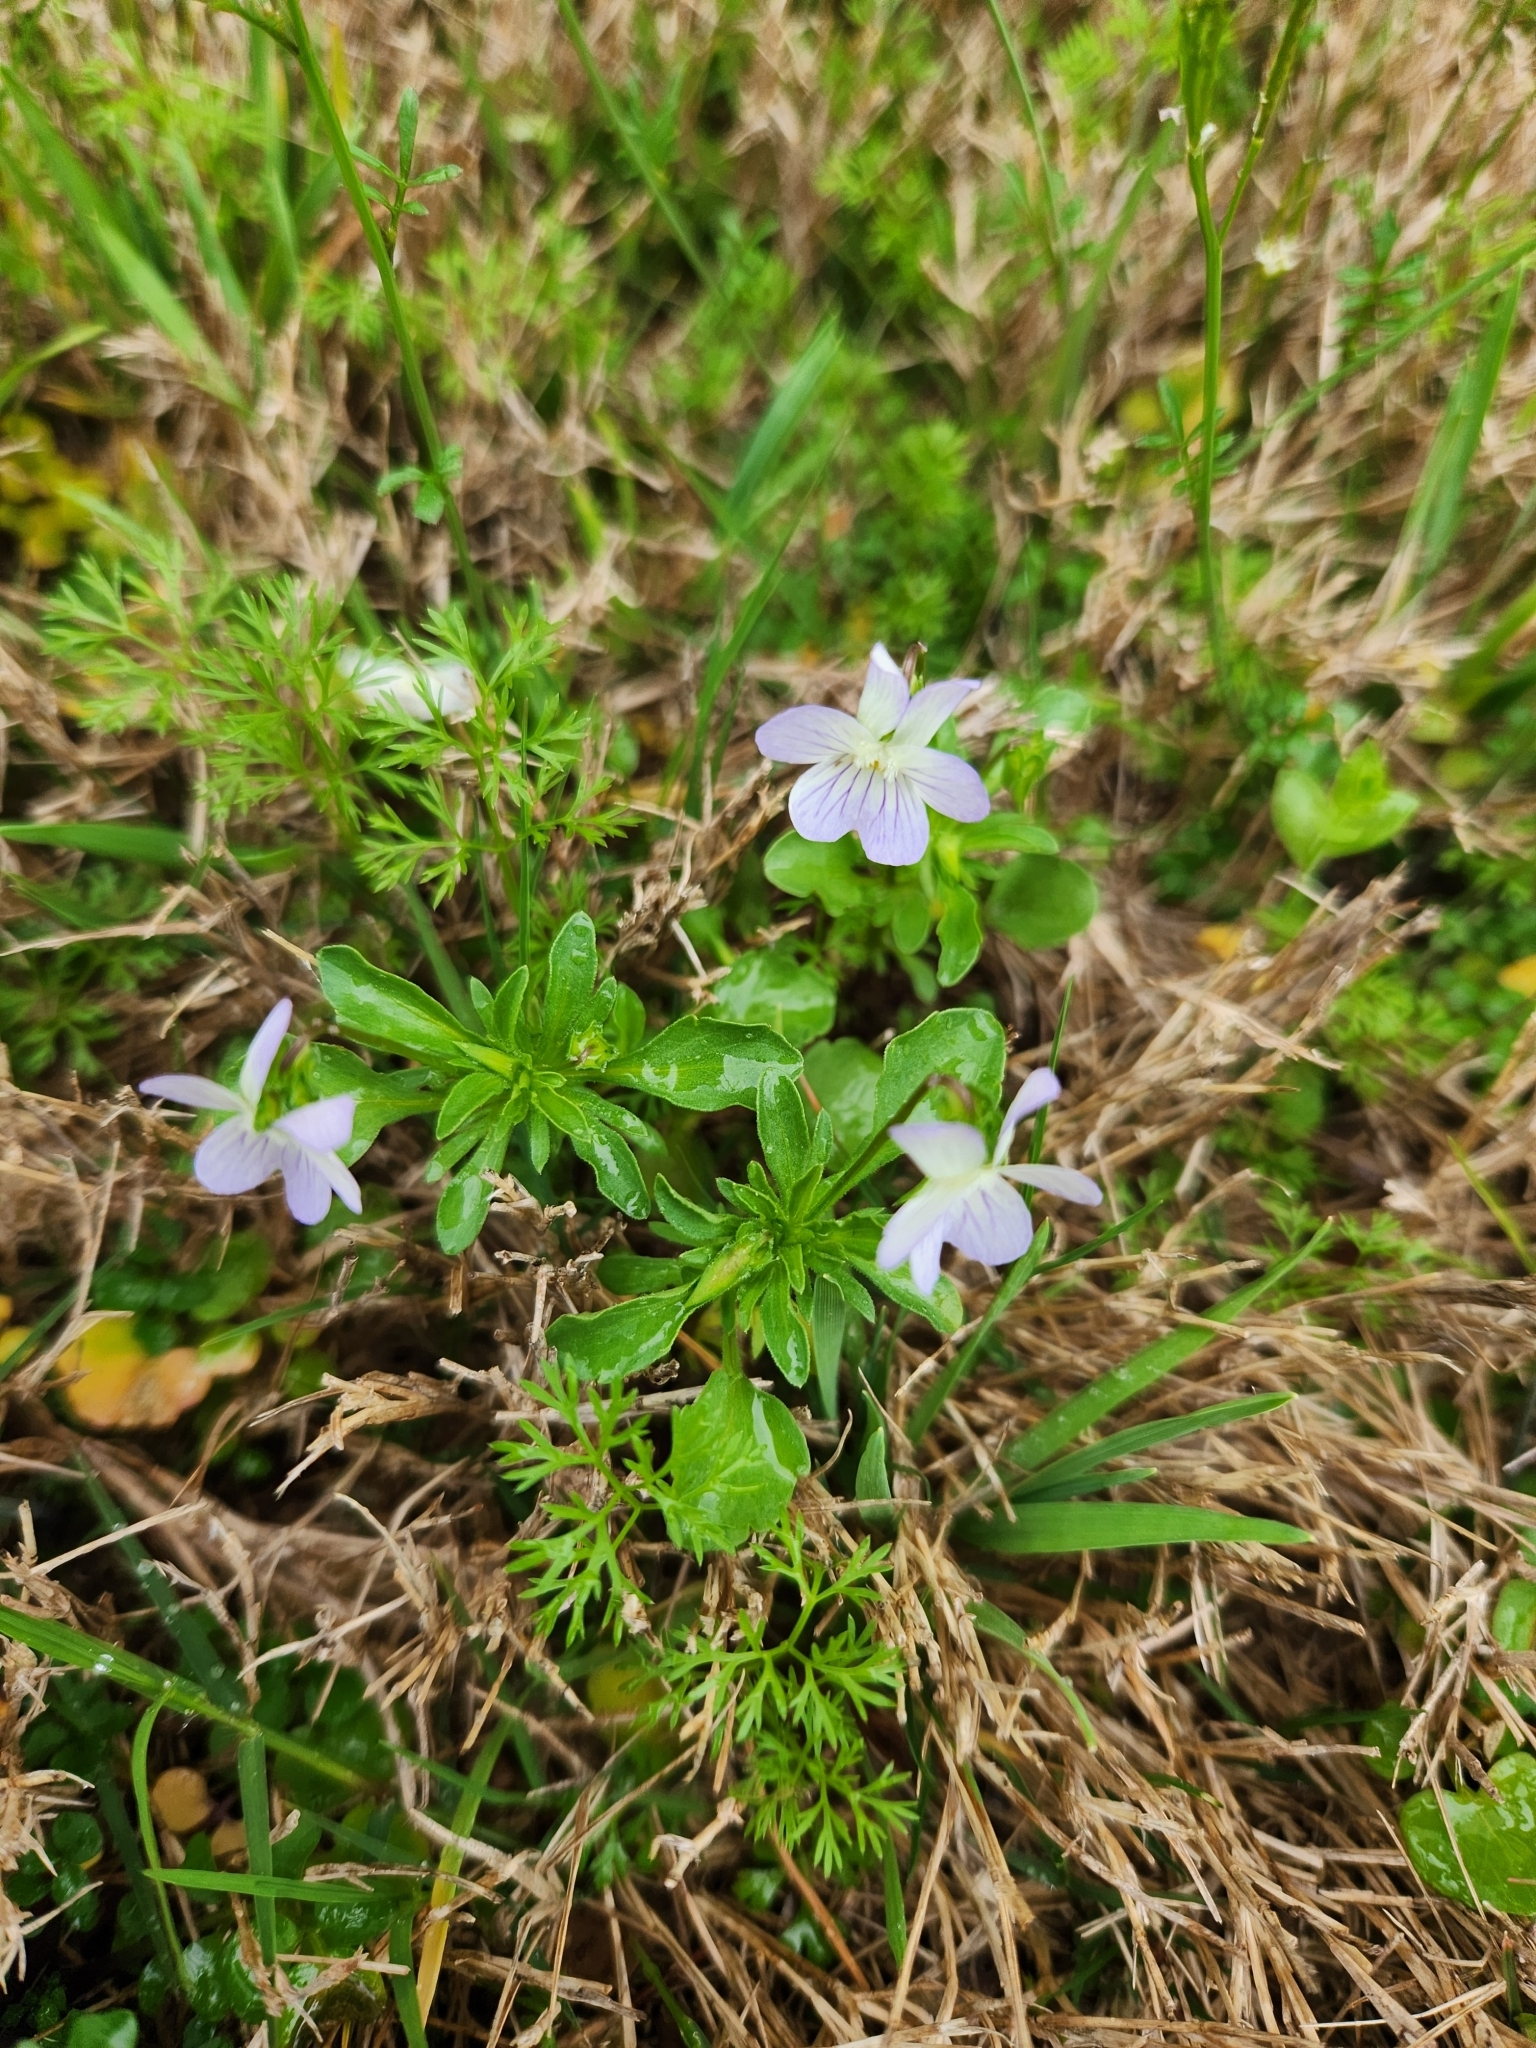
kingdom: Plantae
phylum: Tracheophyta
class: Magnoliopsida
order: Malpighiales
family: Violaceae
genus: Viola
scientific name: Viola rafinesquei
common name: American field pansy
